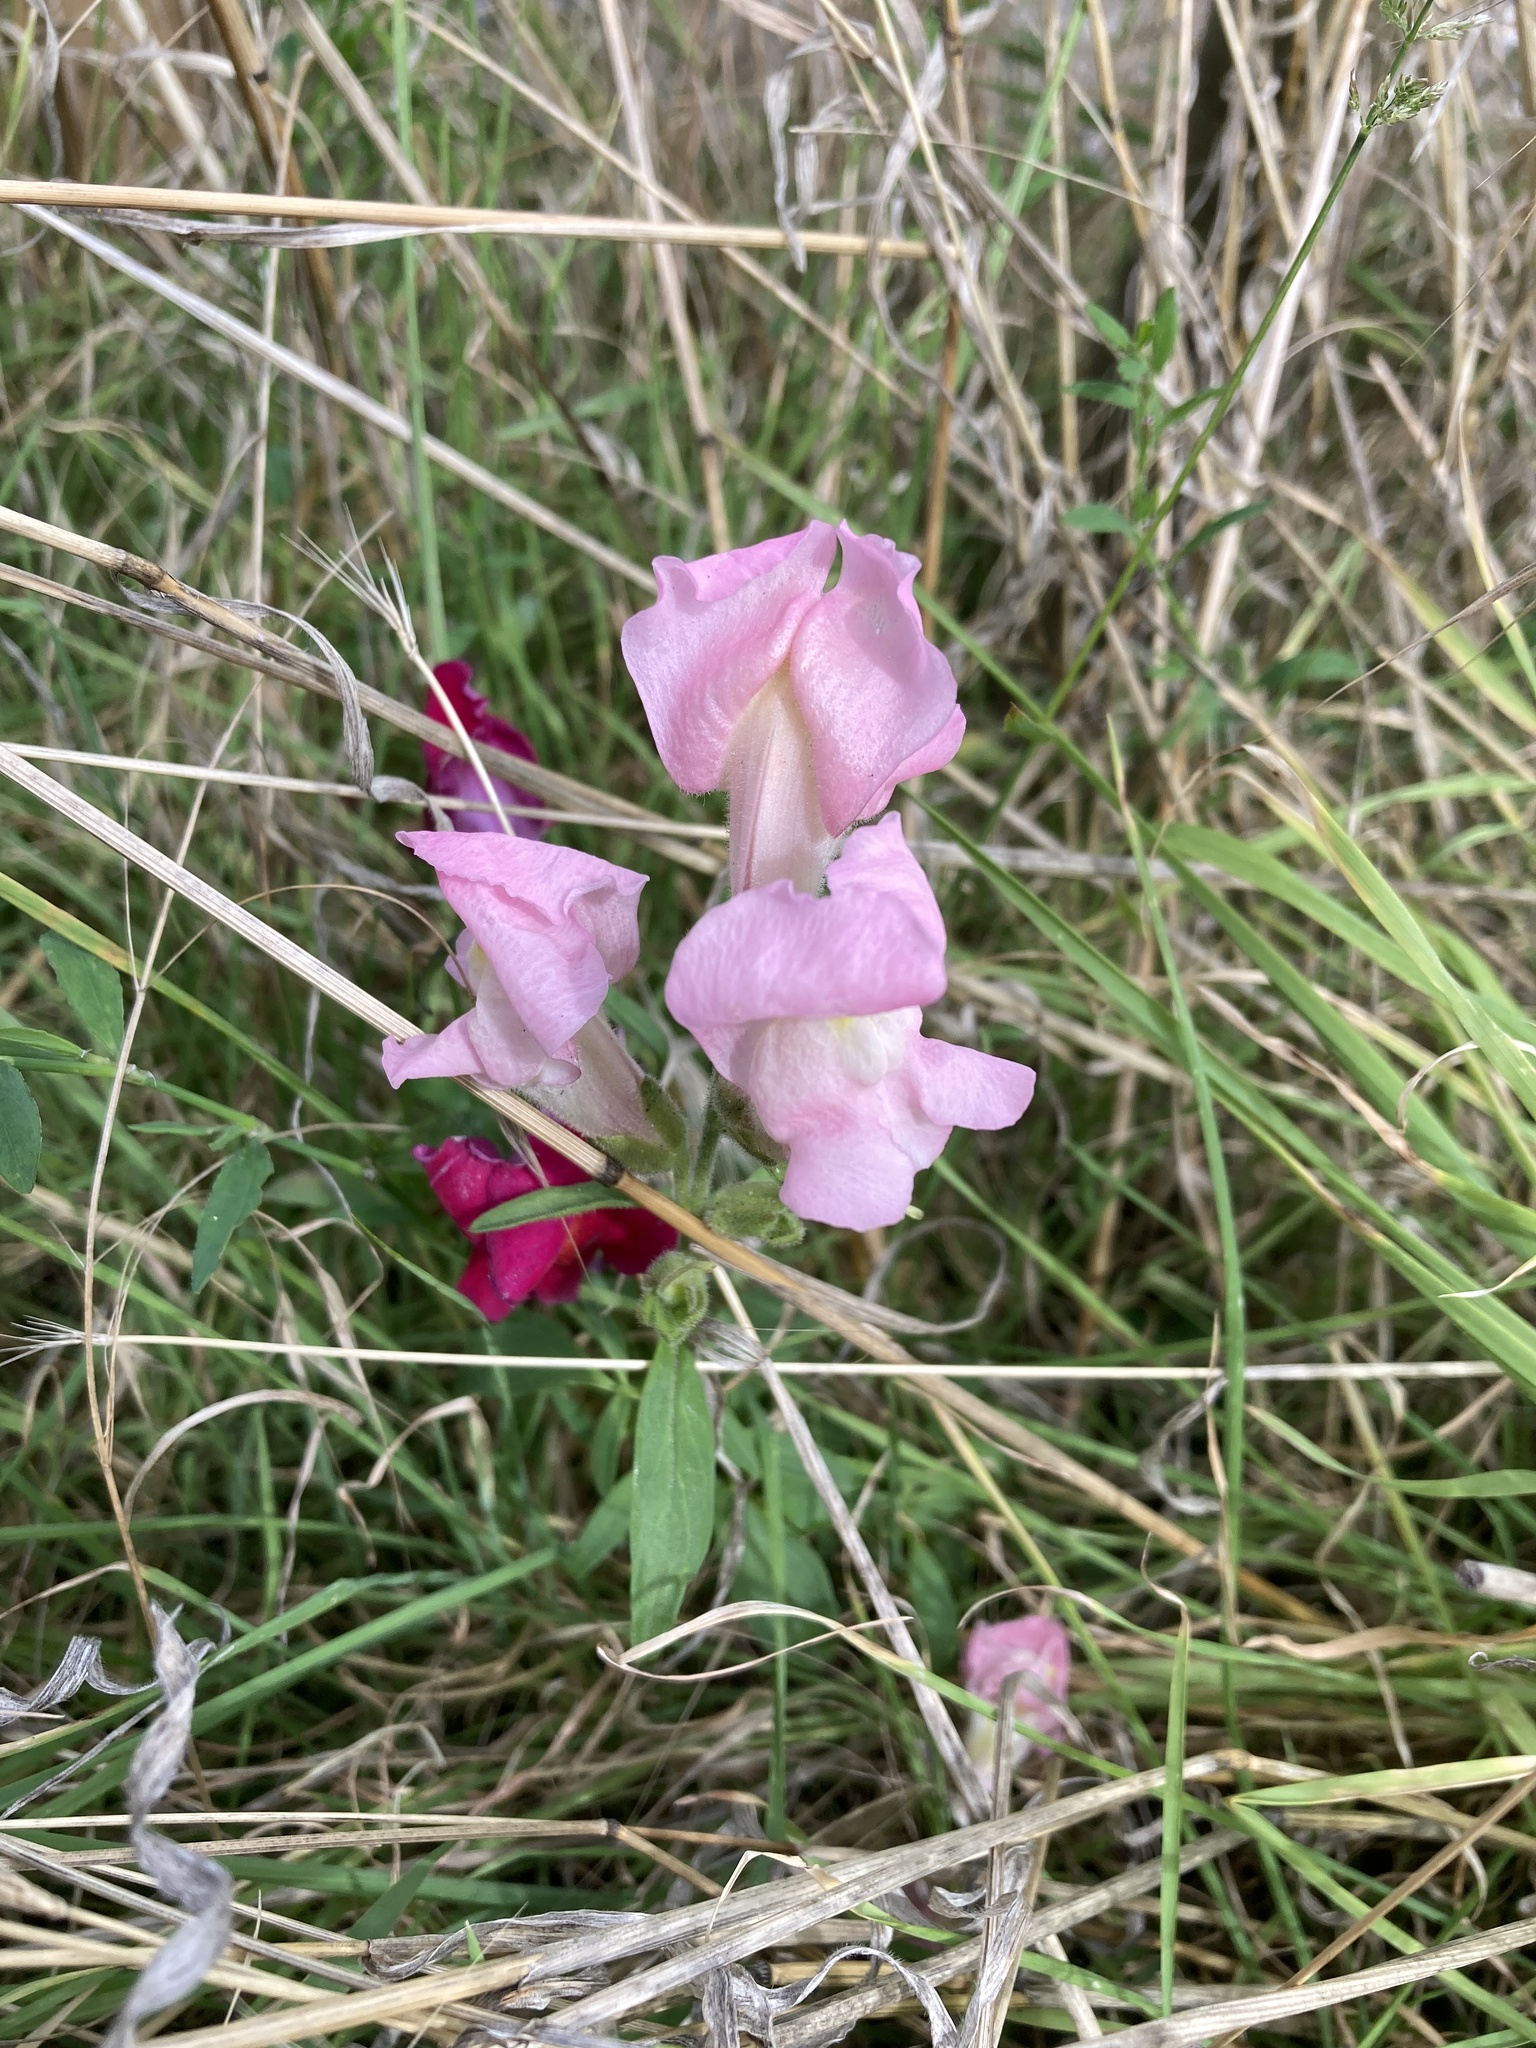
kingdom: Plantae
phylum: Tracheophyta
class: Magnoliopsida
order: Lamiales
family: Plantaginaceae
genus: Antirrhinum
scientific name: Antirrhinum majus
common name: Snapdragon
